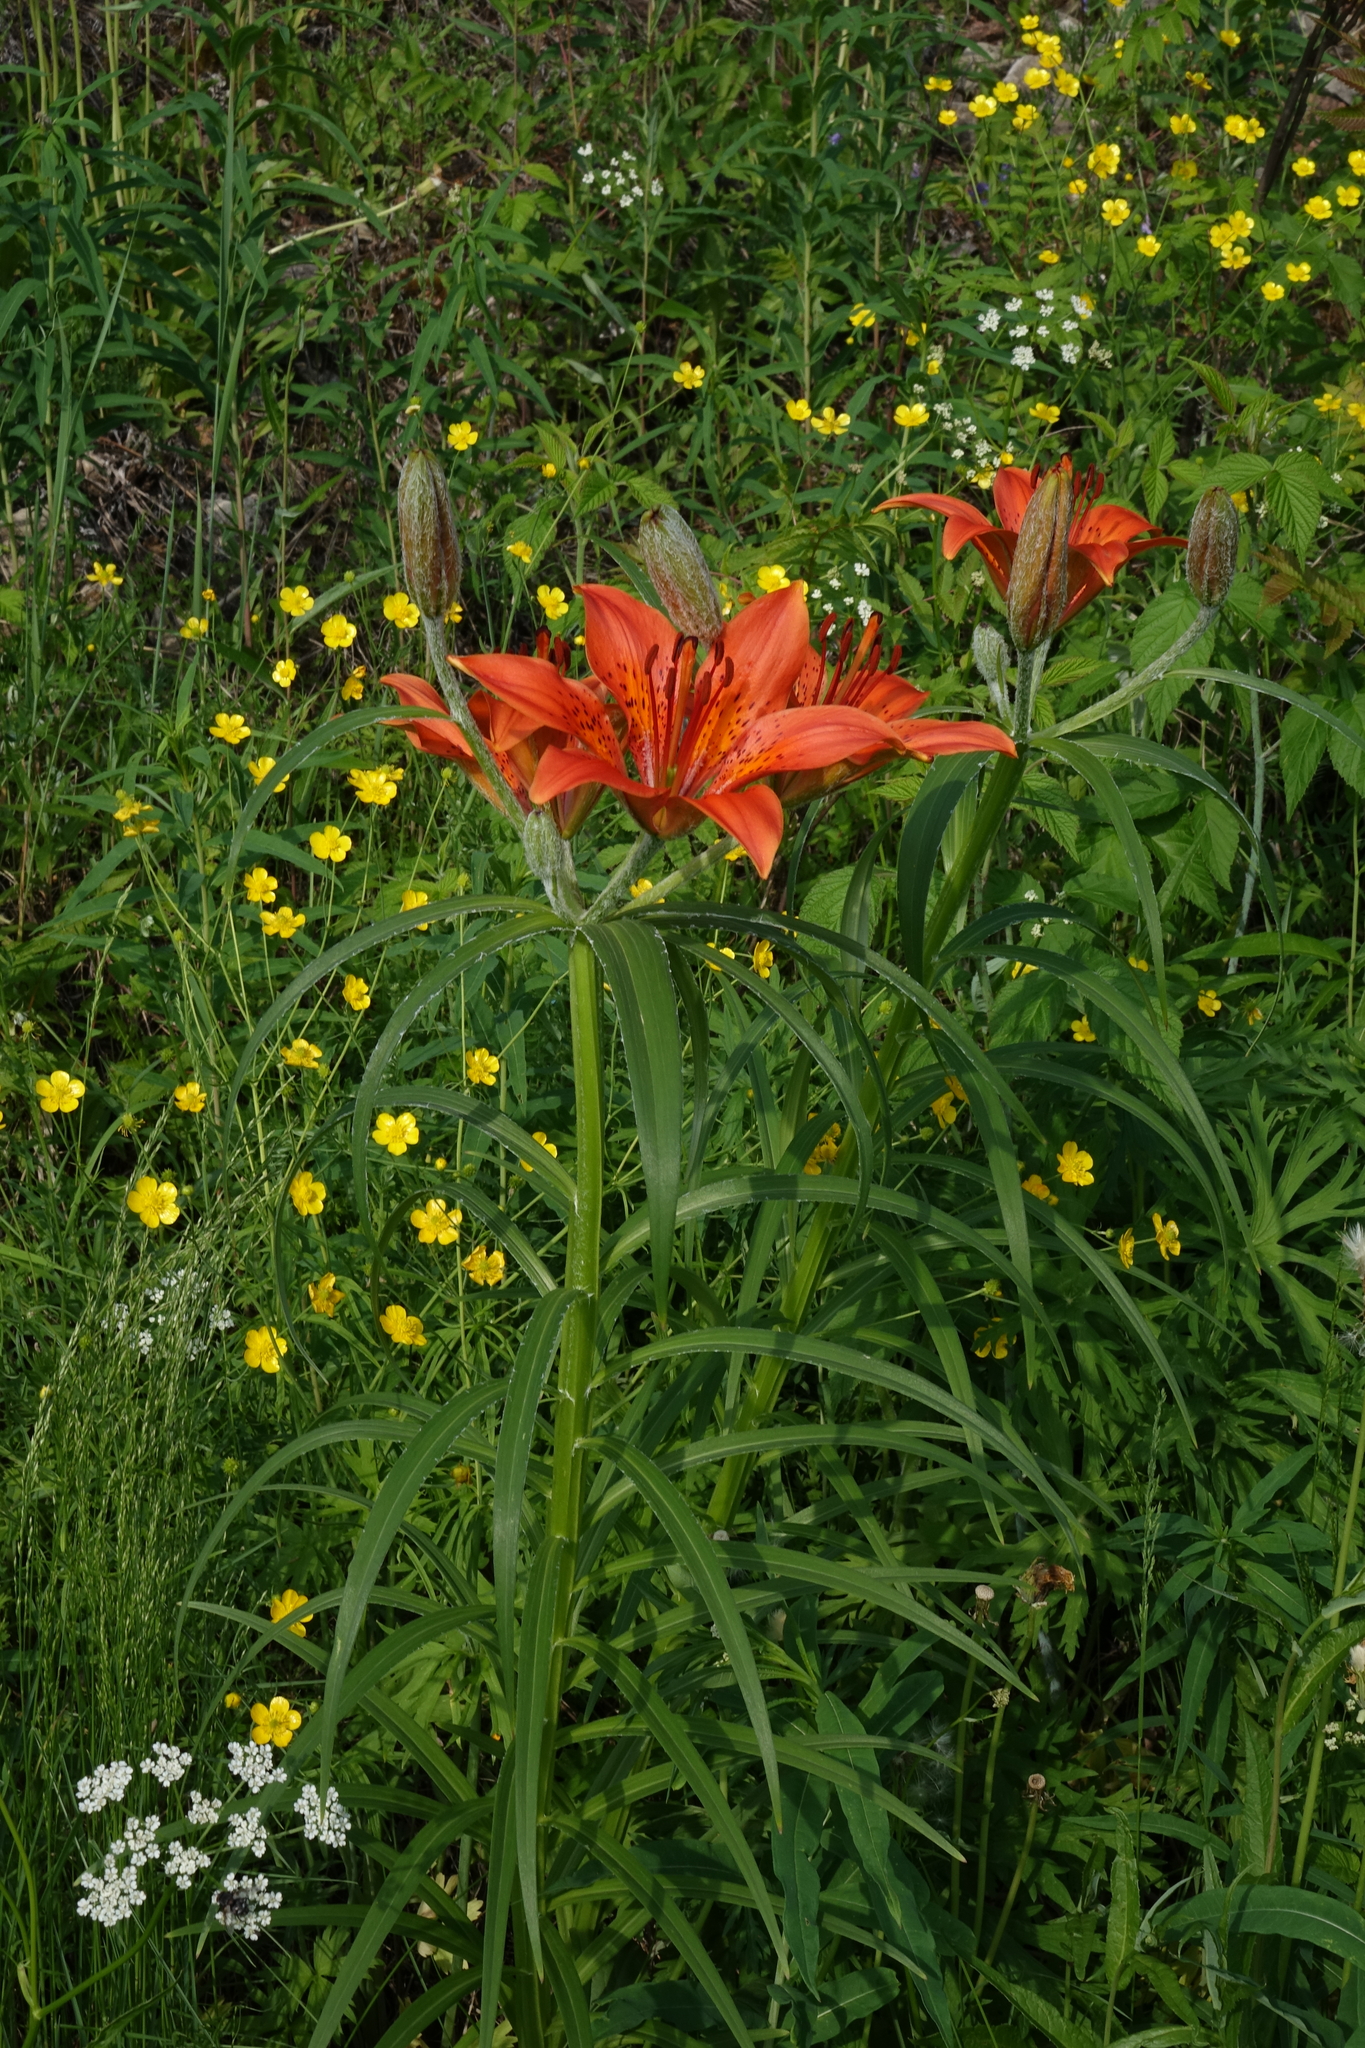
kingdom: Plantae
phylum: Tracheophyta
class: Liliopsida
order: Liliales
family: Liliaceae
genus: Lilium
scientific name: Lilium pensylvanicum
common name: Candlestick lily
